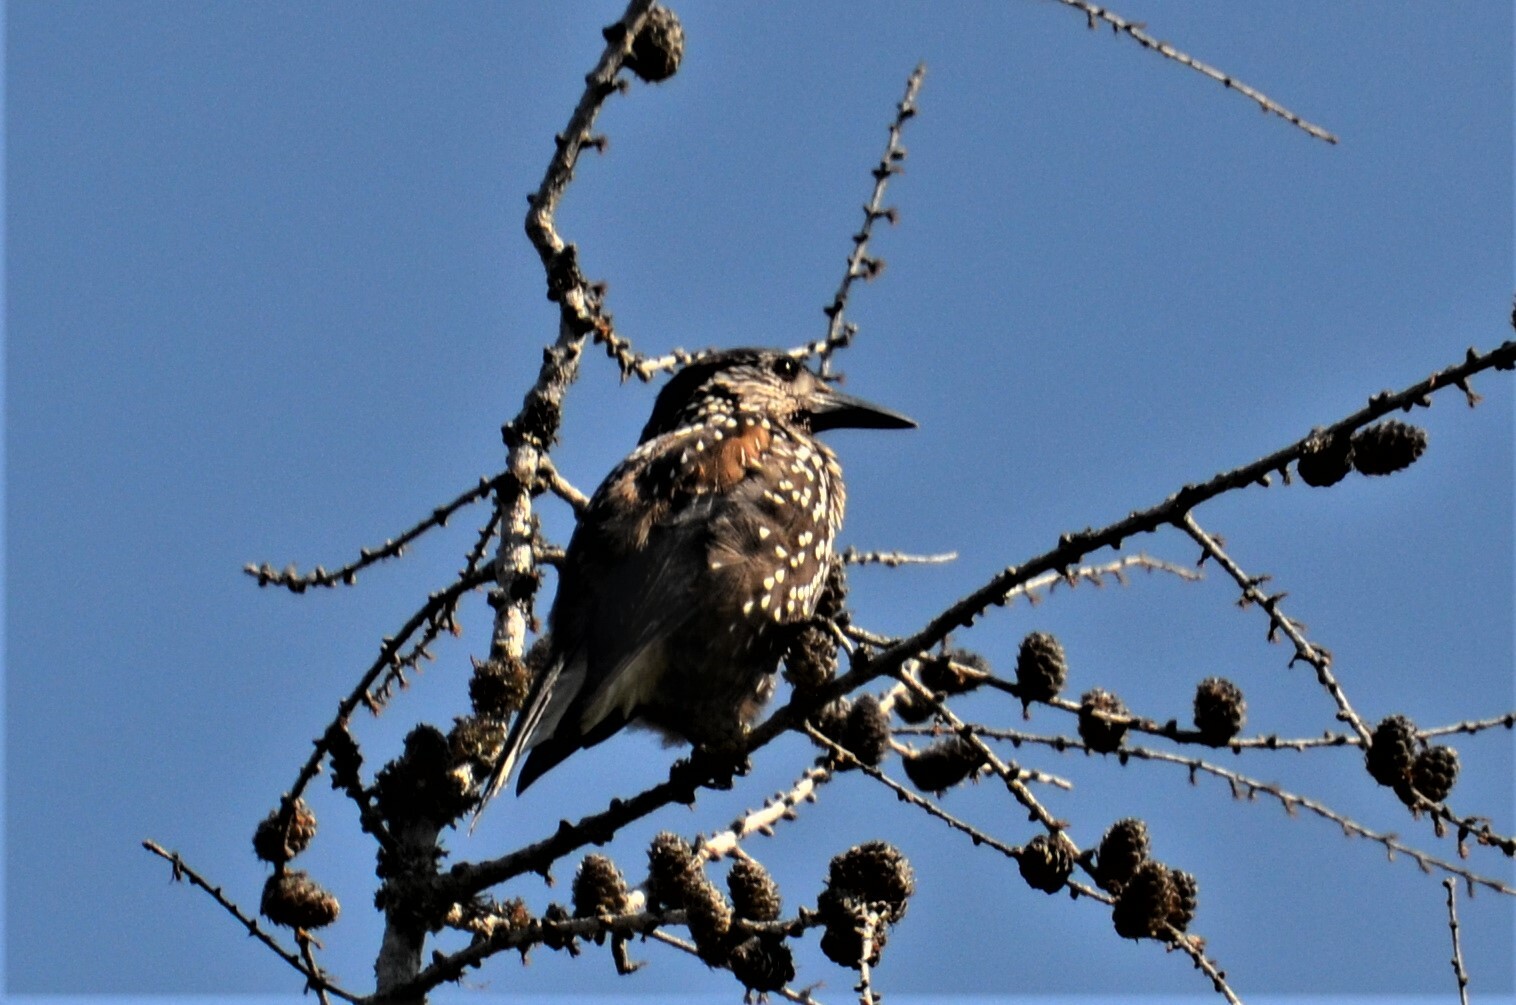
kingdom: Animalia
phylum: Chordata
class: Aves
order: Passeriformes
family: Corvidae
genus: Nucifraga
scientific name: Nucifraga caryocatactes
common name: Spotted nutcracker
